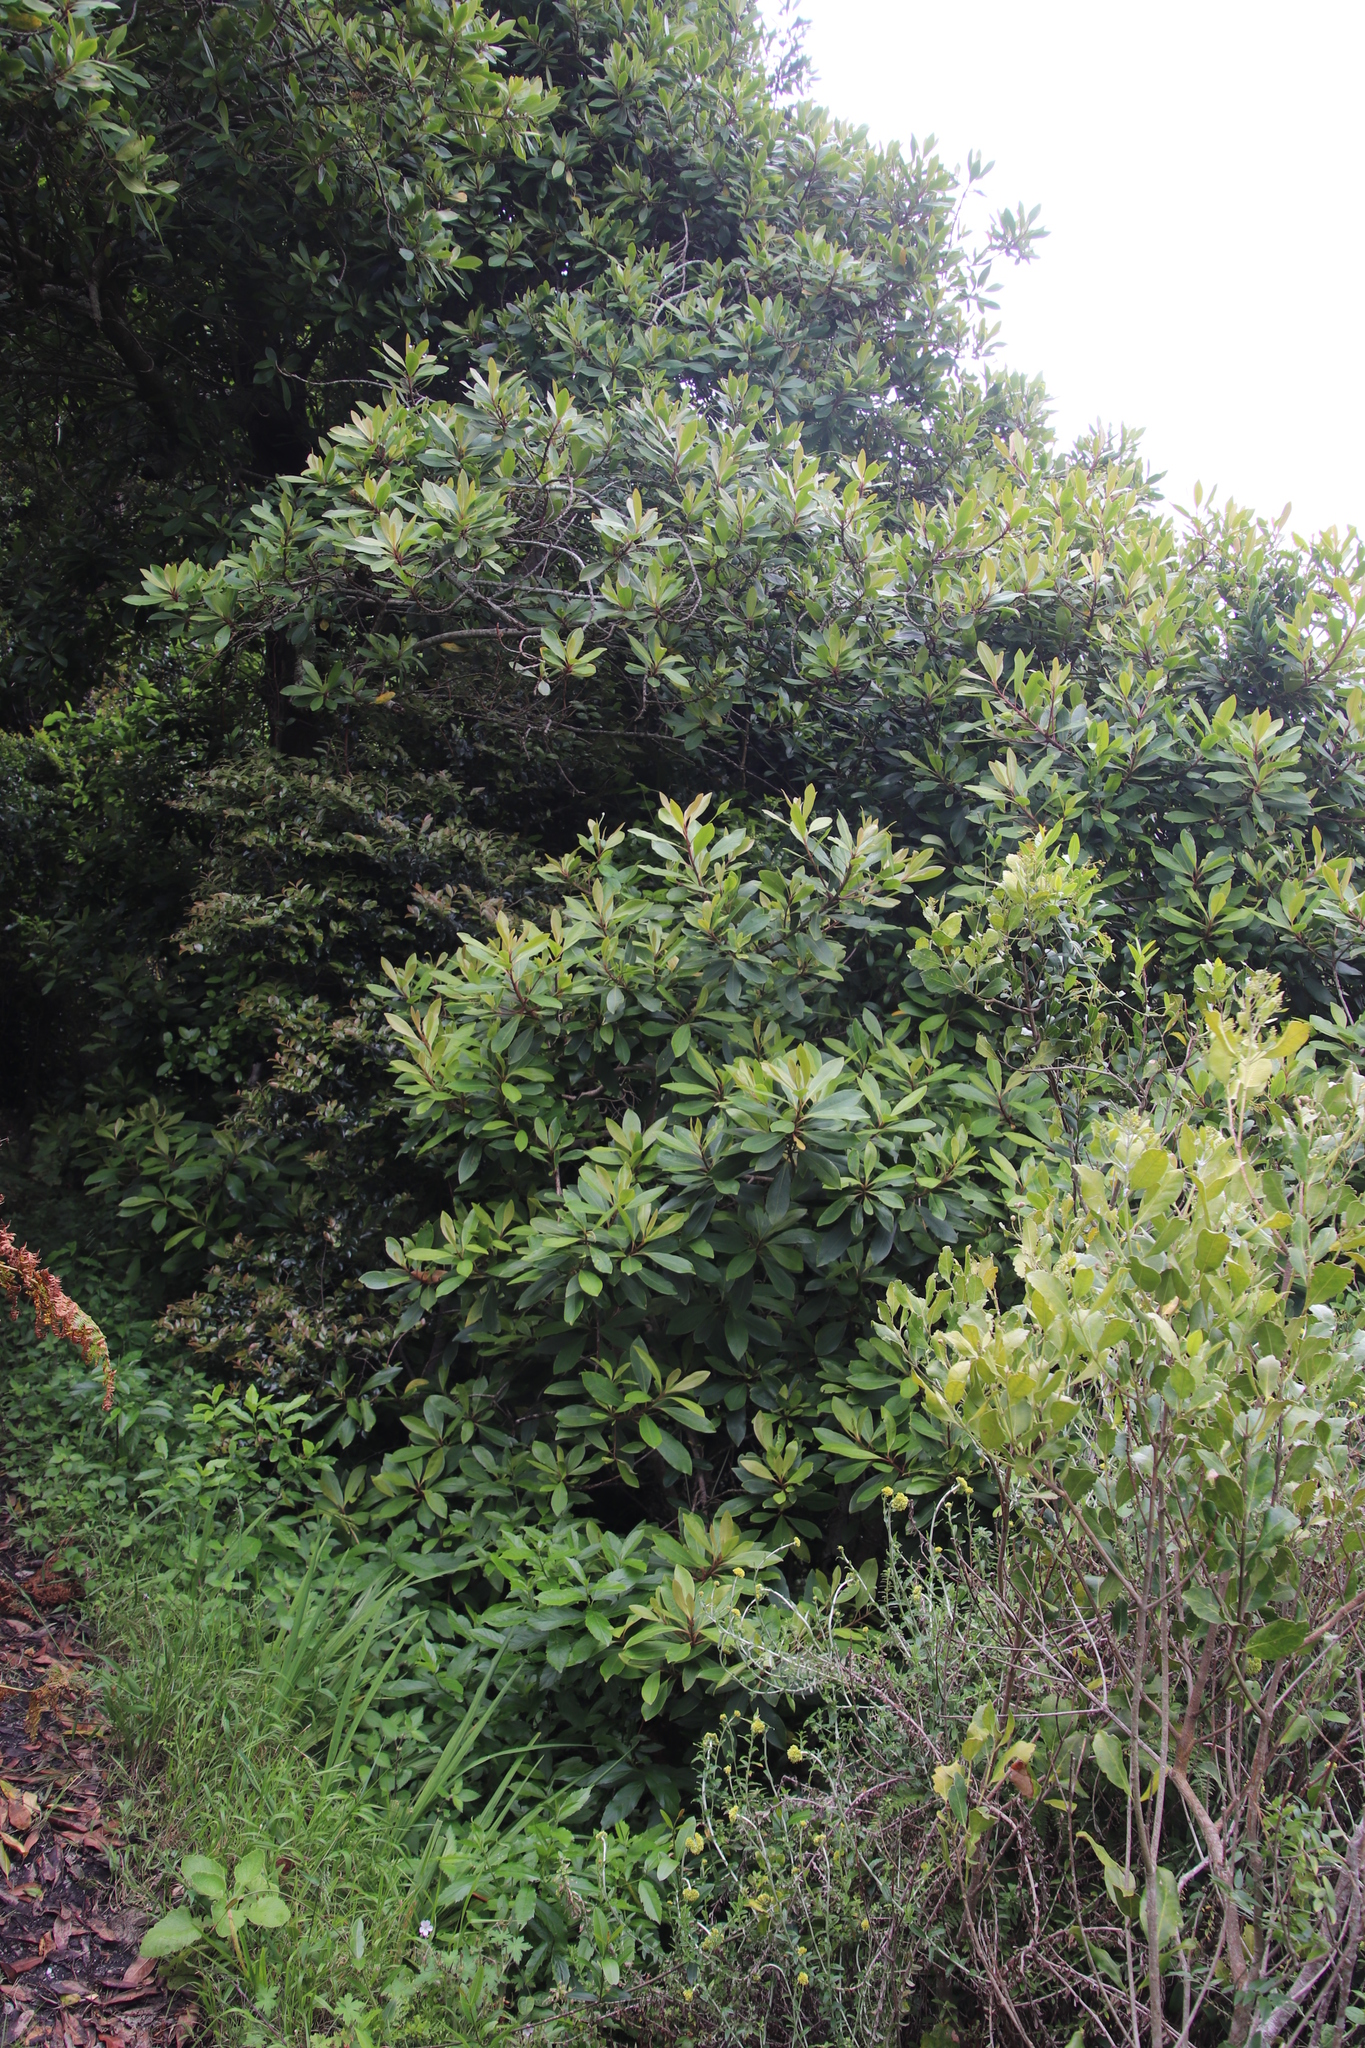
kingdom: Plantae
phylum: Tracheophyta
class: Magnoliopsida
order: Ericales
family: Primulaceae
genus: Myrsine
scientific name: Myrsine melanophloeos
